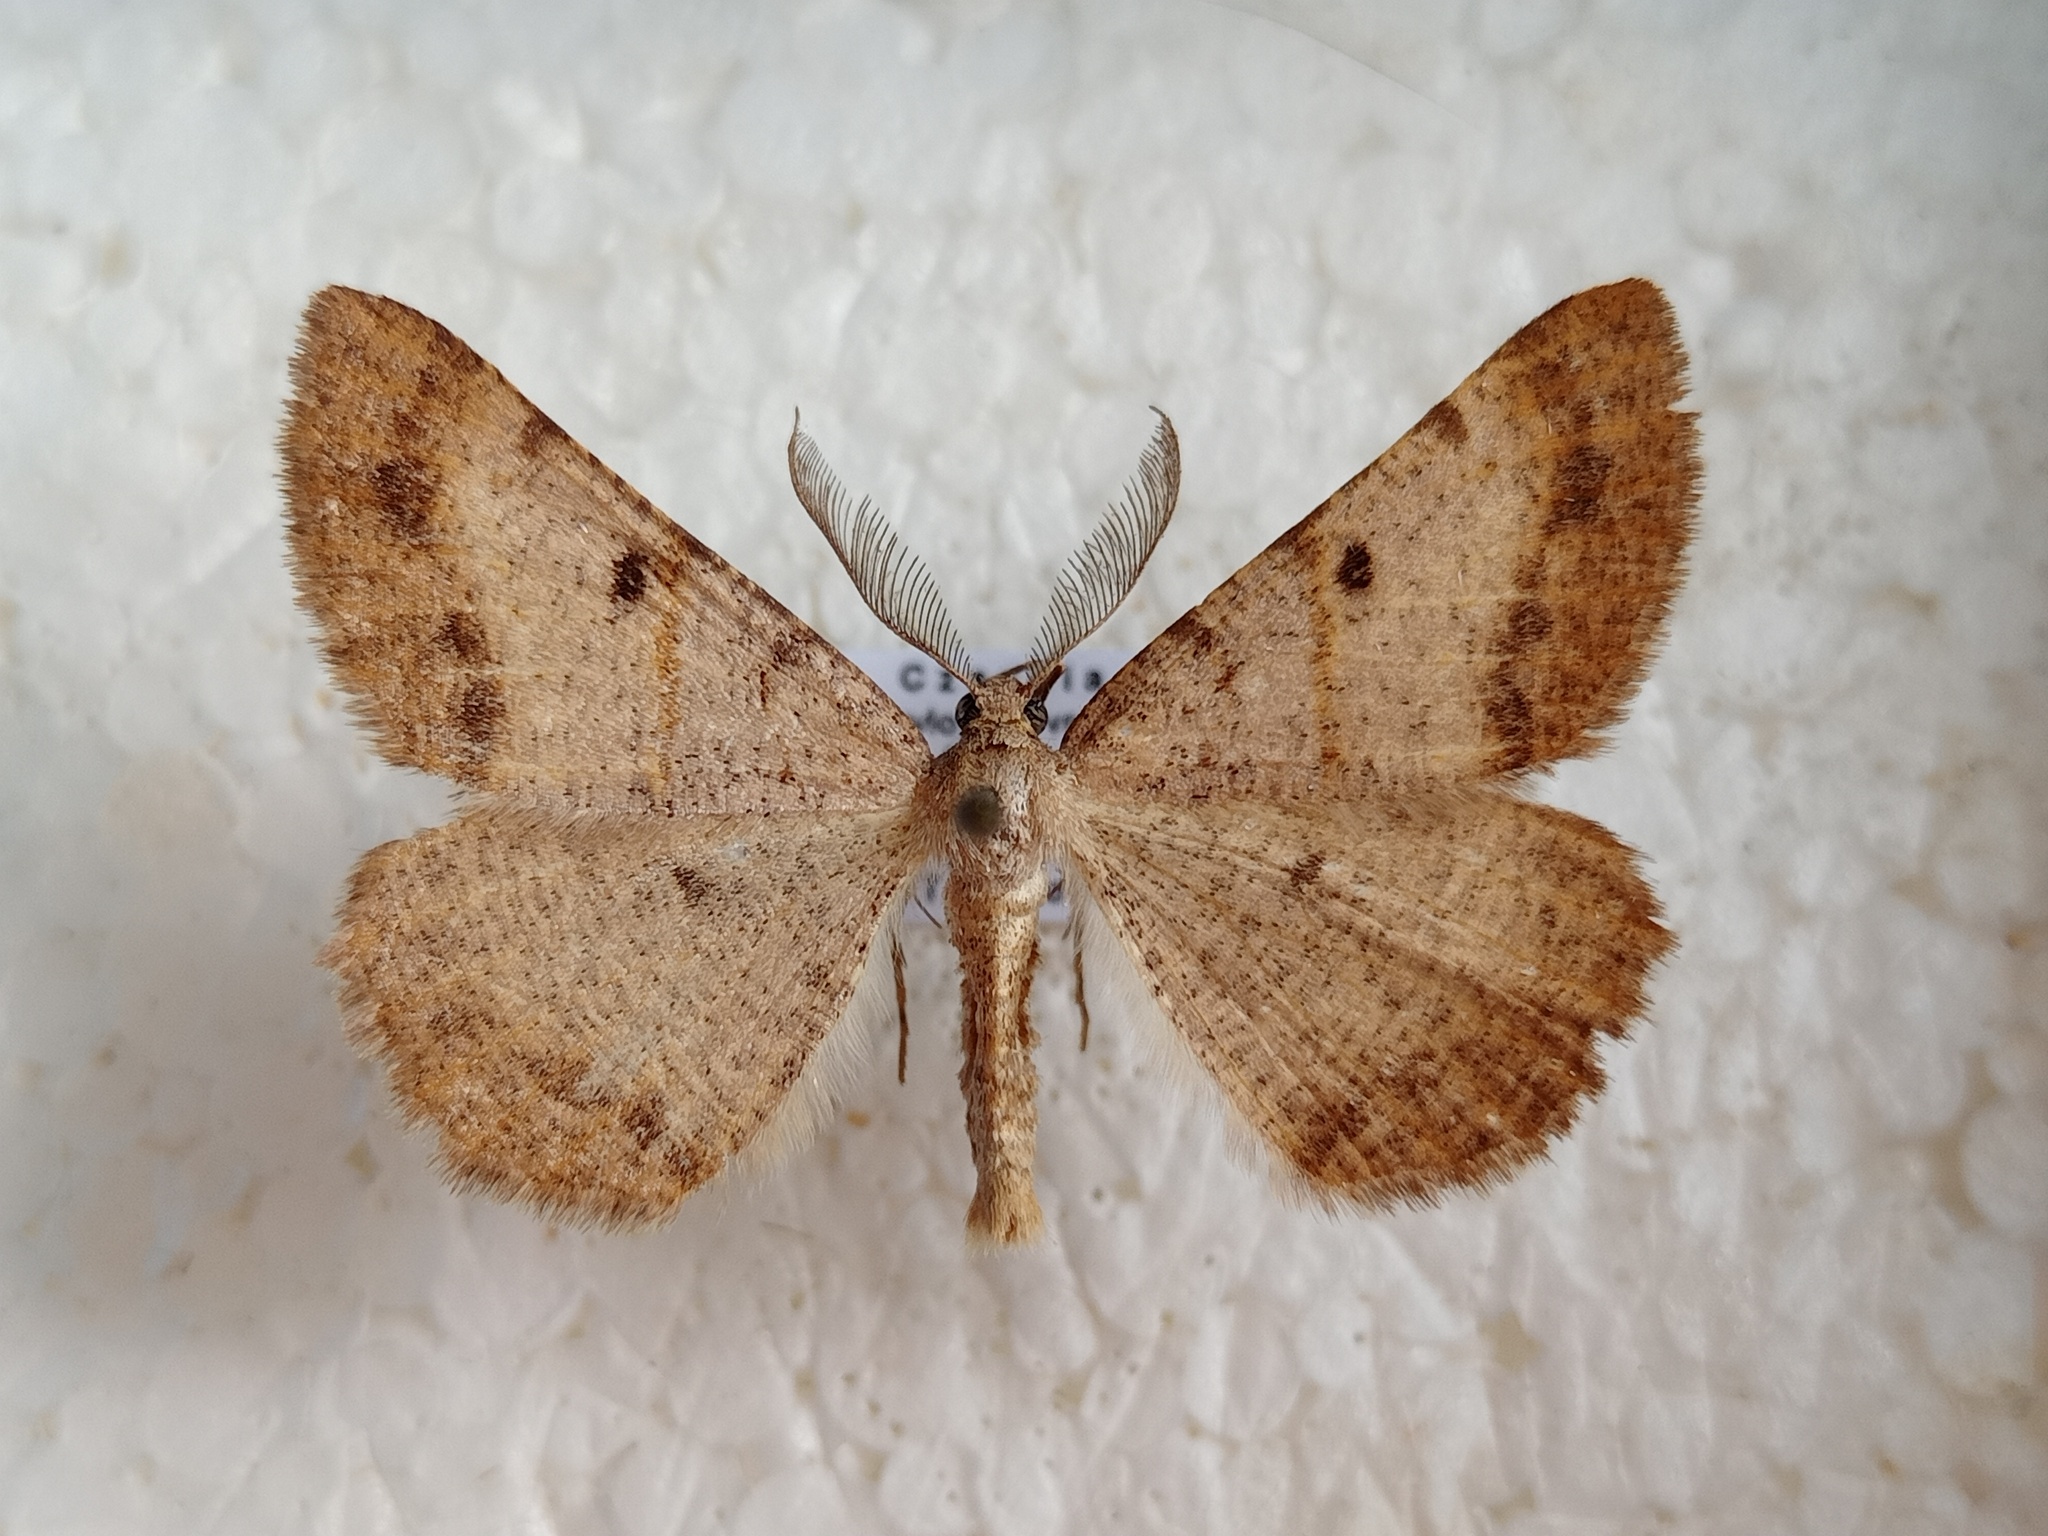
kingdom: Animalia
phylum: Arthropoda
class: Insecta
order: Lepidoptera
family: Geometridae
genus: Selidosema
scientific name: Selidosema plumaria
